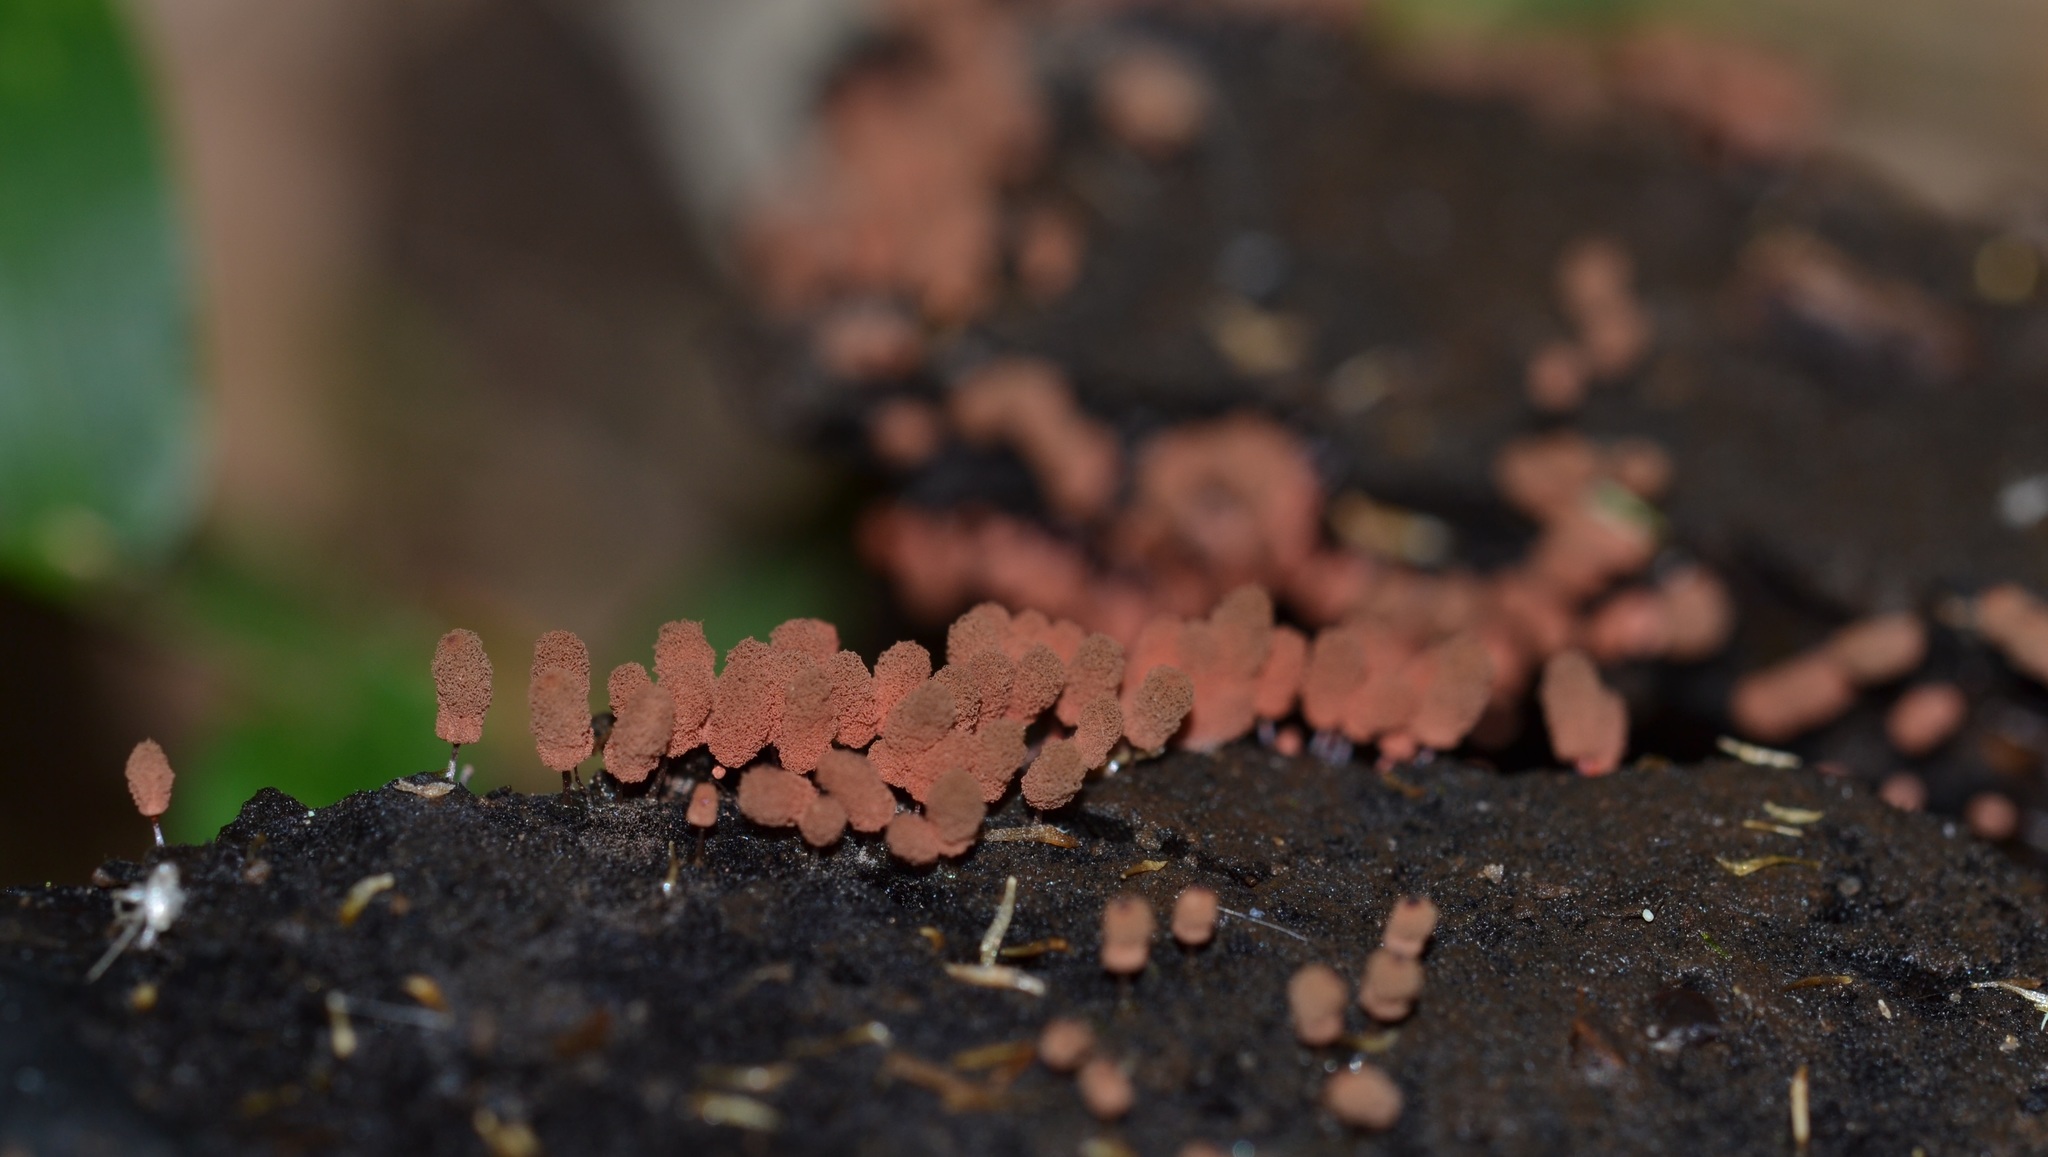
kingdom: Protozoa
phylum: Mycetozoa
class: Myxomycetes
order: Trichiales
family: Arcyriaceae
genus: Arcyria
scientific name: Arcyria denudata
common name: Carnival candy slime mold
